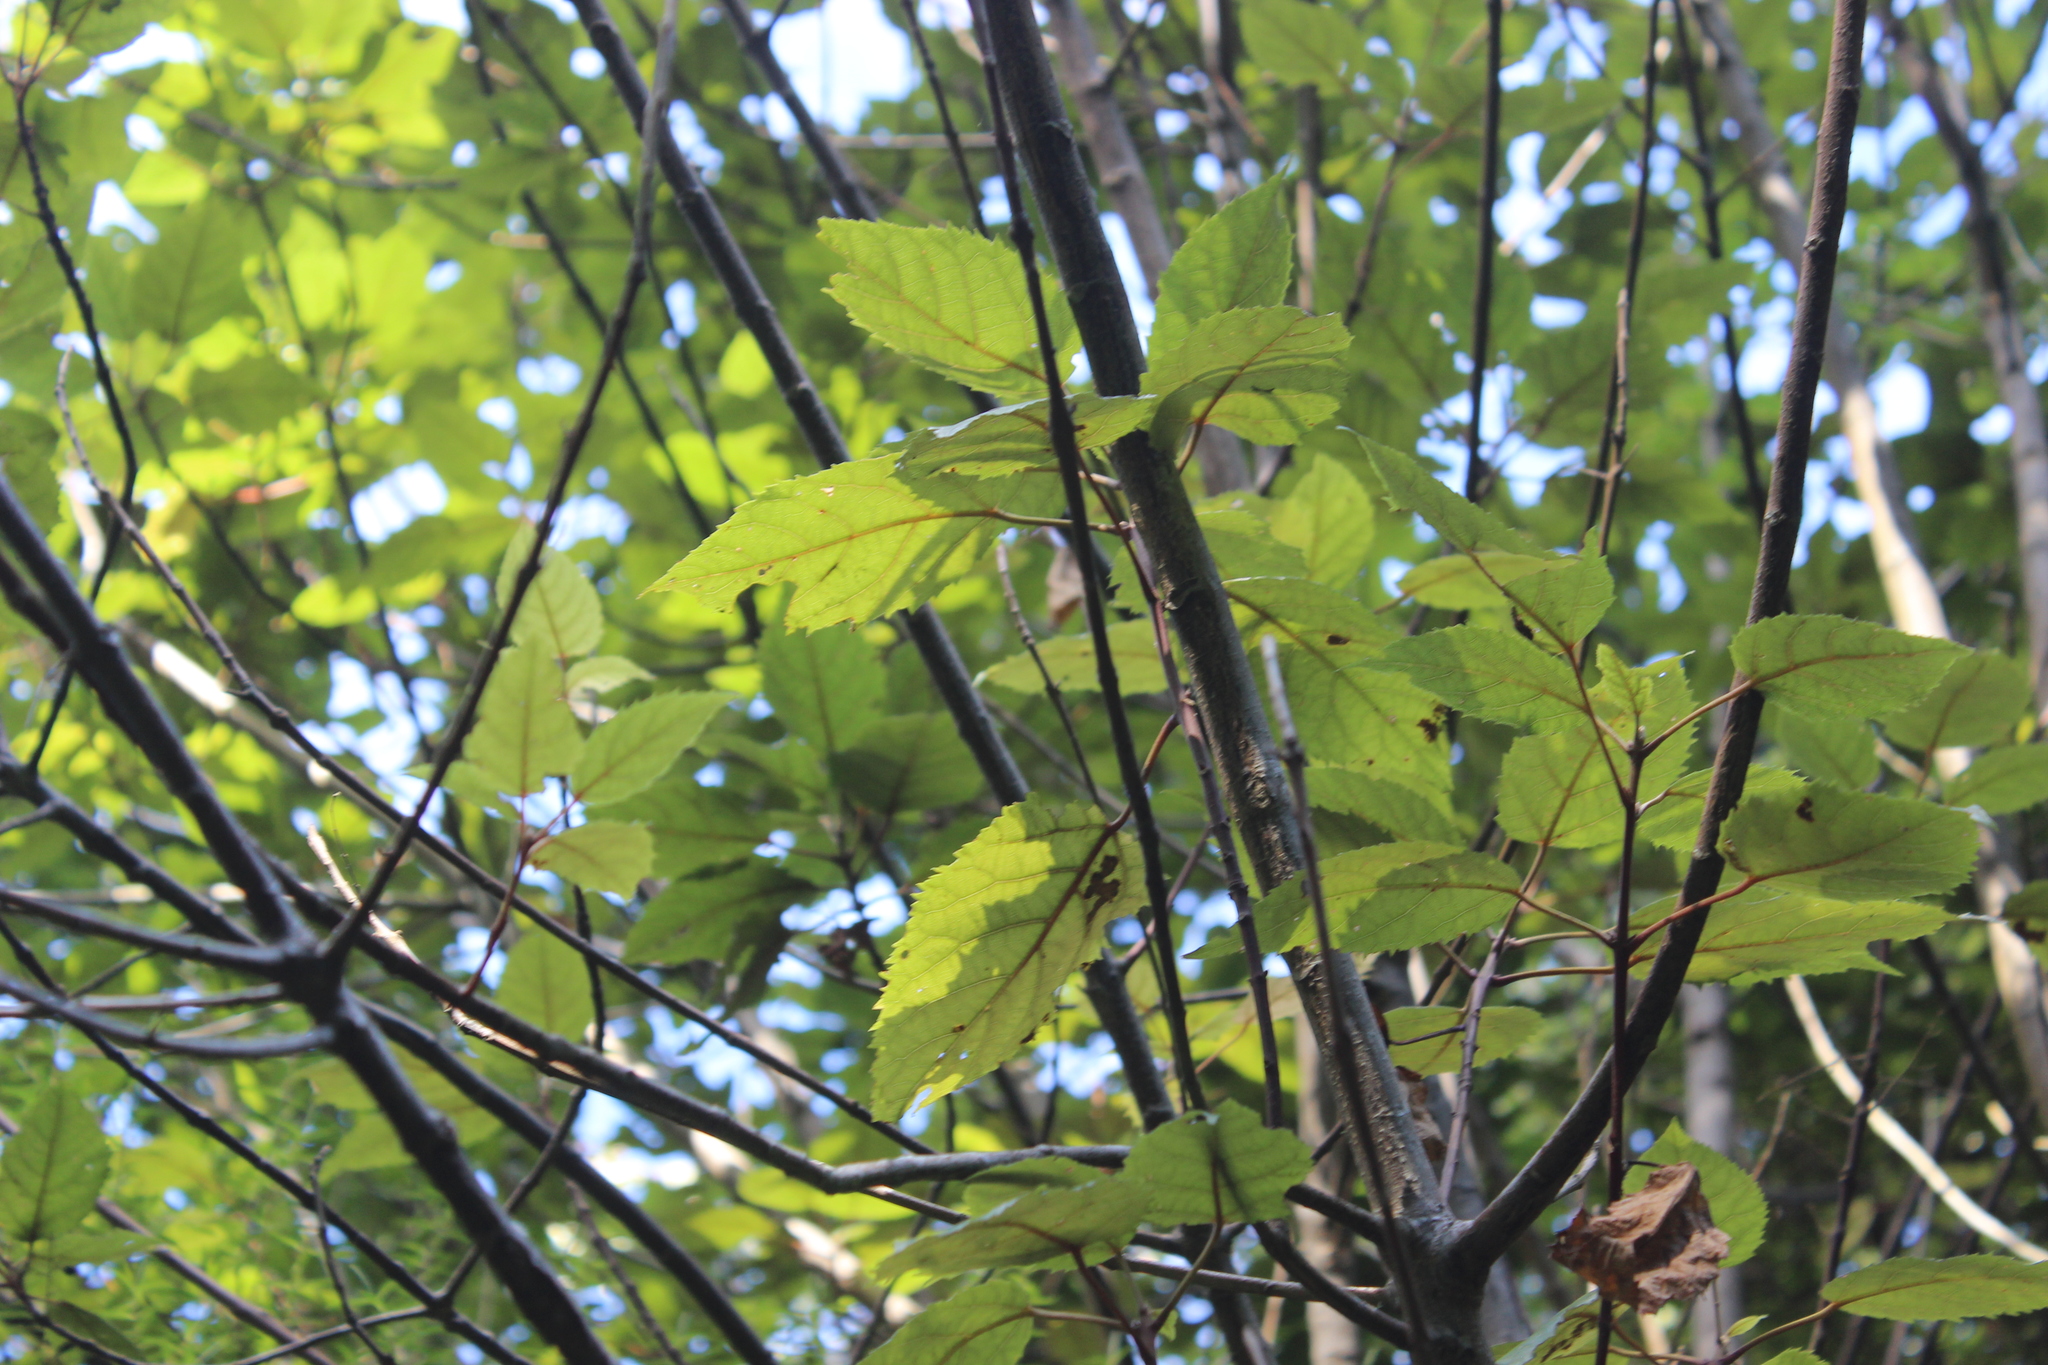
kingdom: Plantae
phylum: Tracheophyta
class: Magnoliopsida
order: Oxalidales
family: Elaeocarpaceae
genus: Aristotelia
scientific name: Aristotelia serrata
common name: New zealand wineberry
